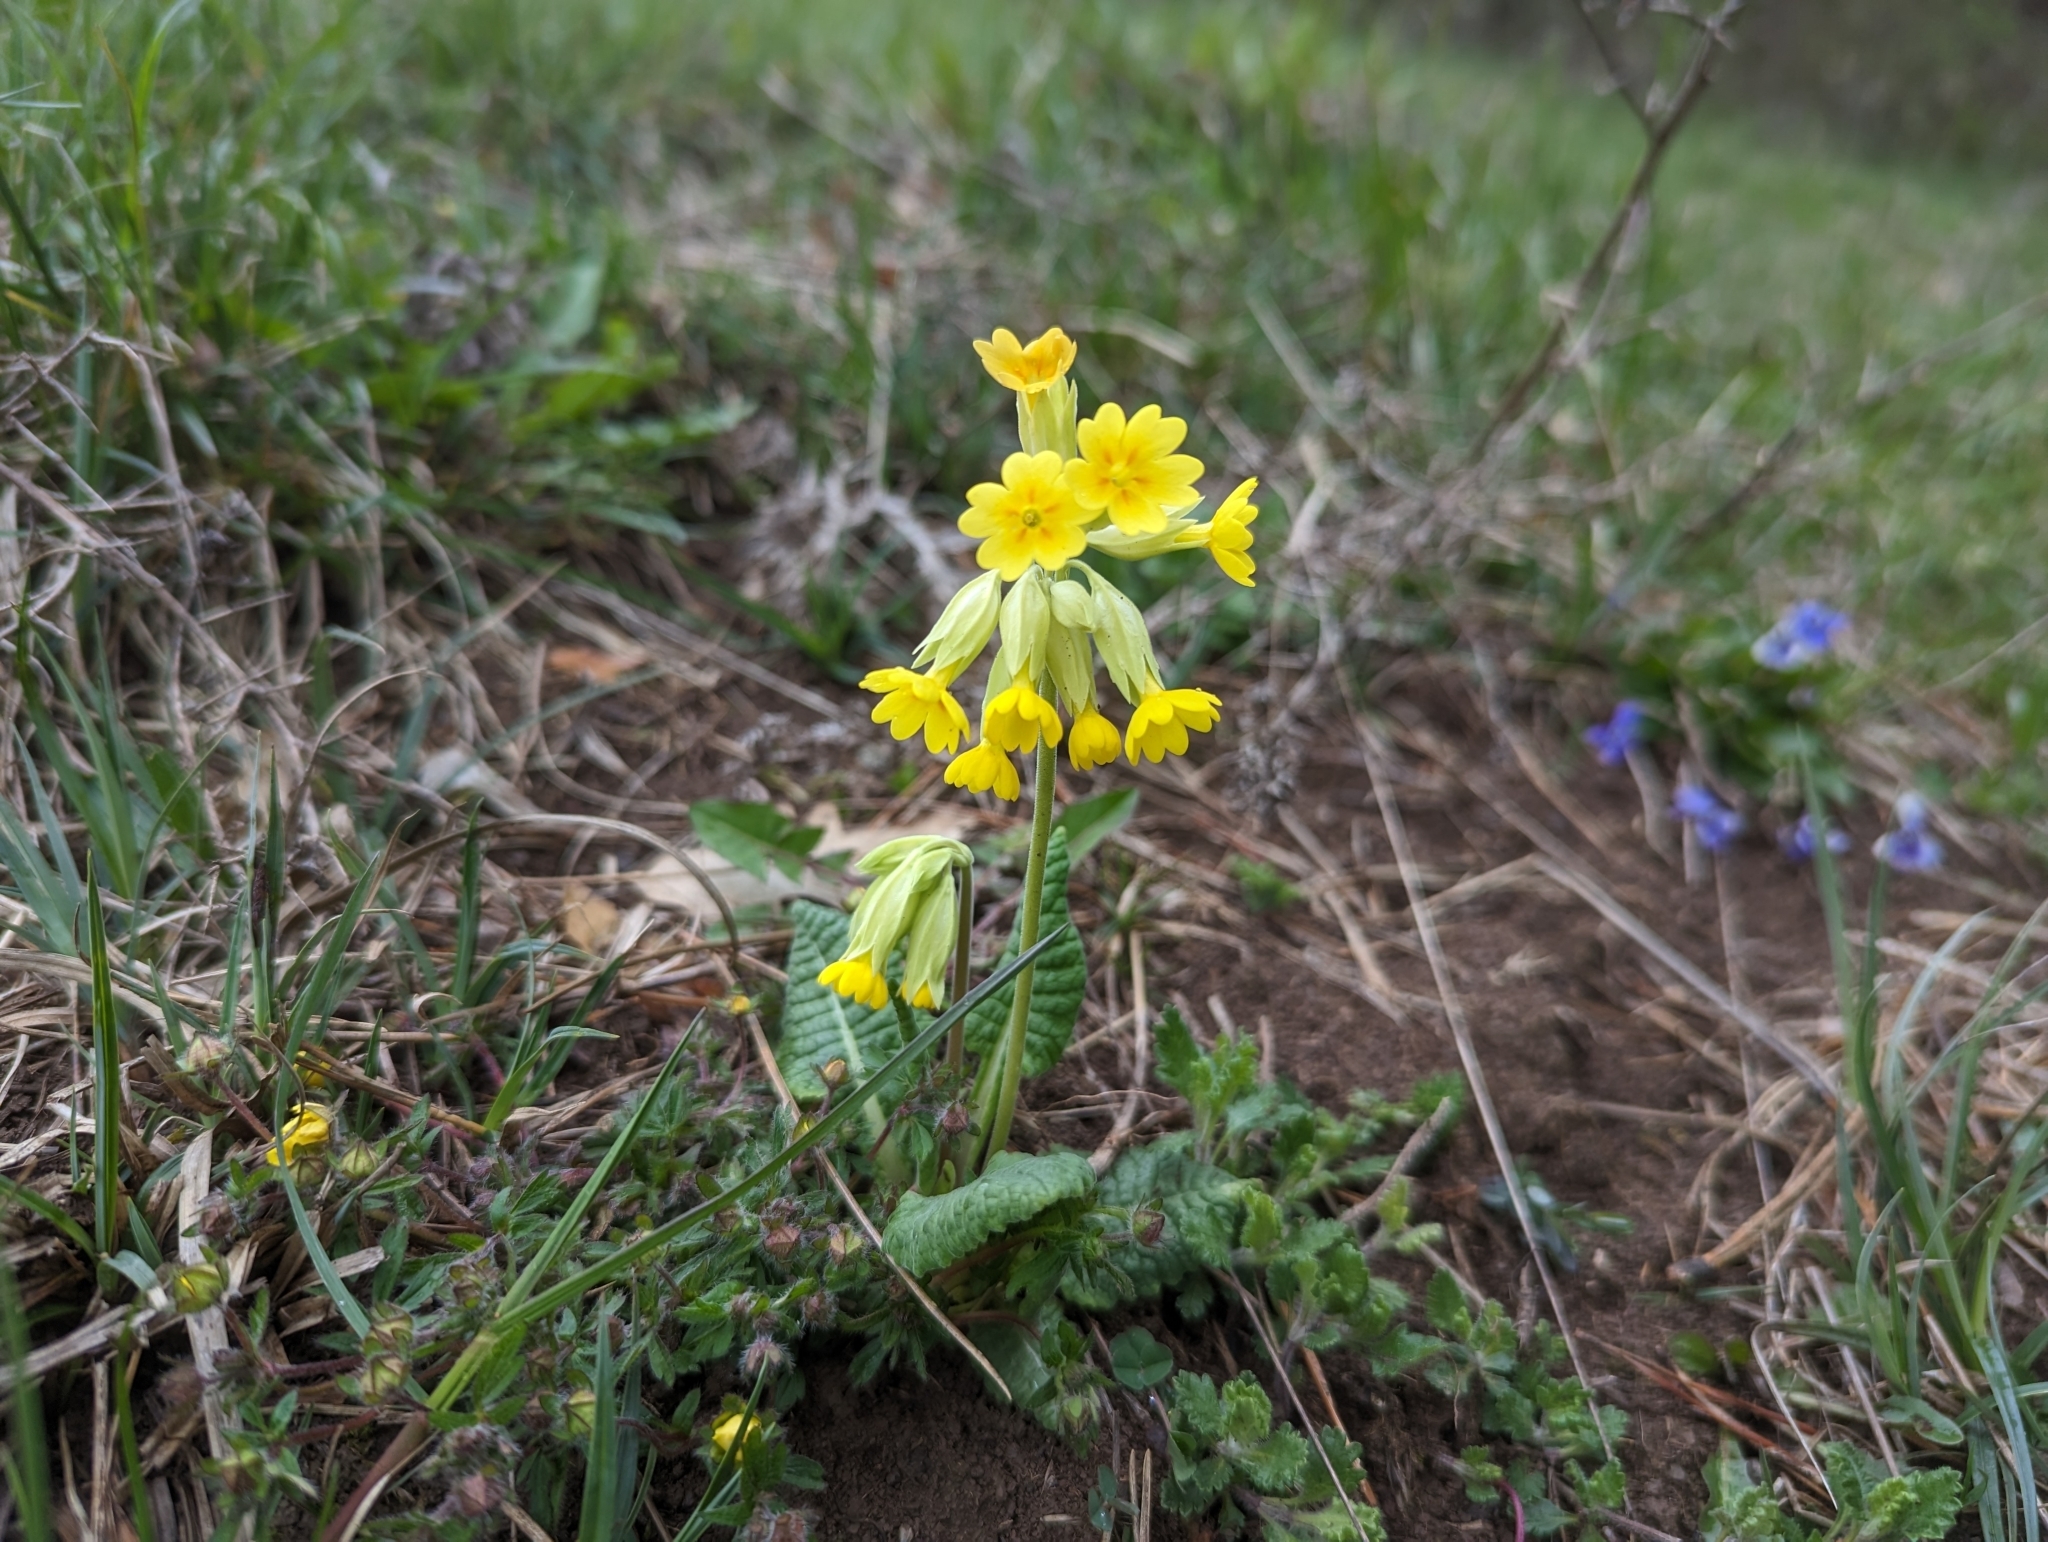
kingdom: Plantae
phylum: Tracheophyta
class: Magnoliopsida
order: Ericales
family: Primulaceae
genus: Primula
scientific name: Primula veris
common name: Cowslip
